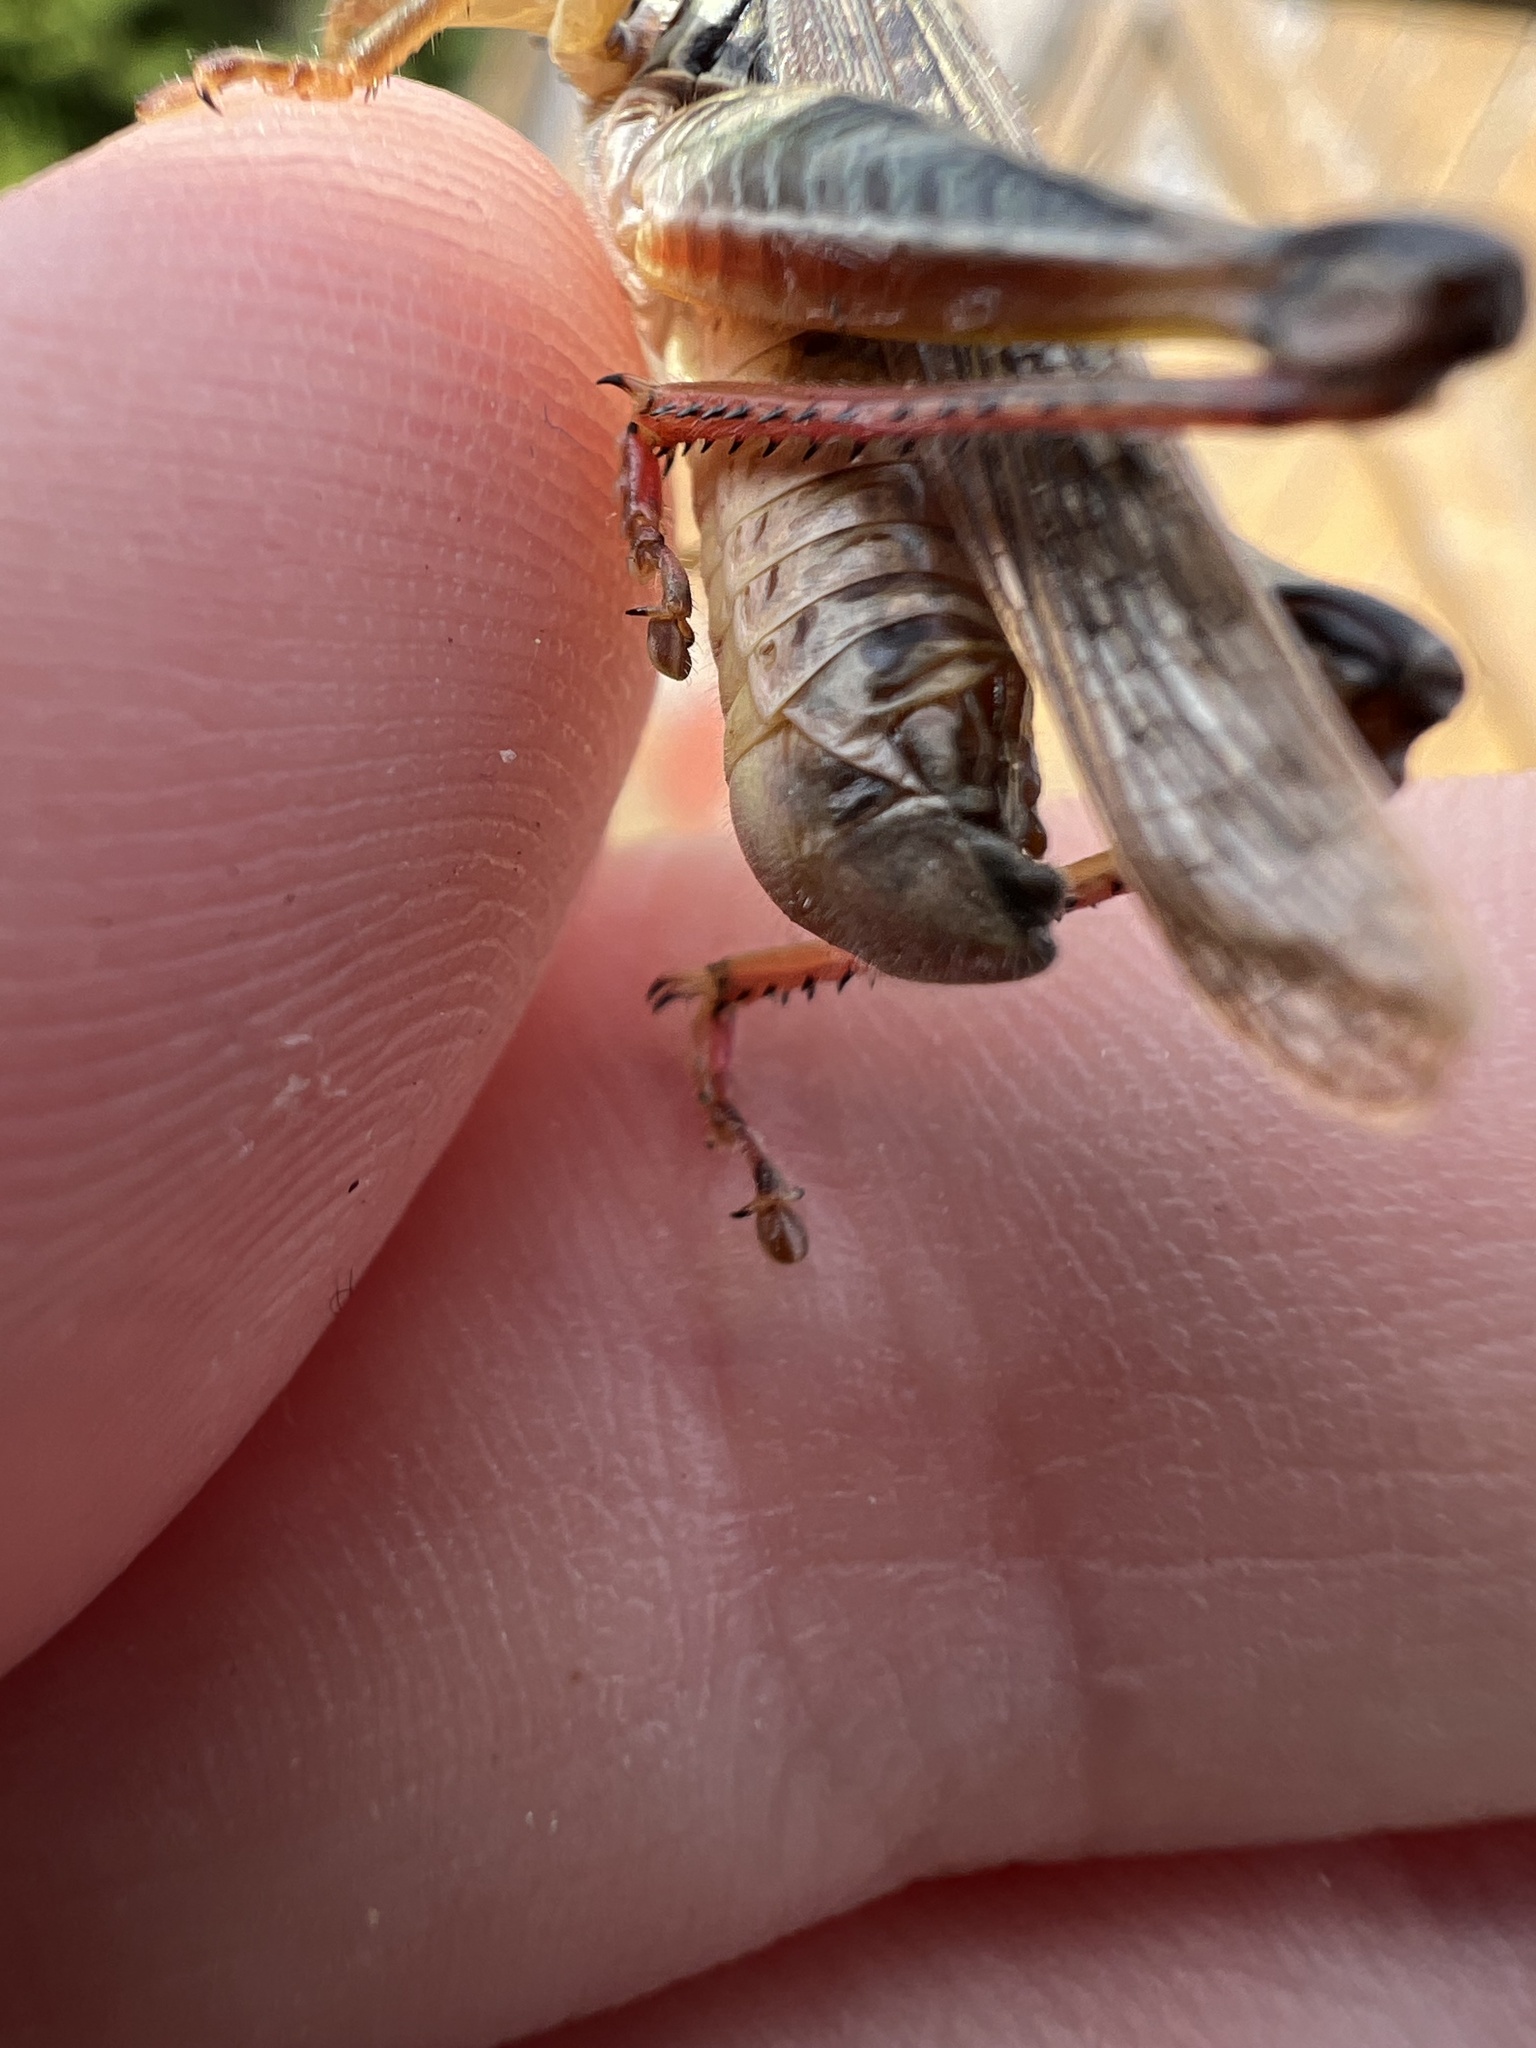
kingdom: Animalia
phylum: Arthropoda
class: Insecta
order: Orthoptera
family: Acrididae
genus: Melanoplus
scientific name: Melanoplus sanguinipes
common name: Migratory grasshopper
